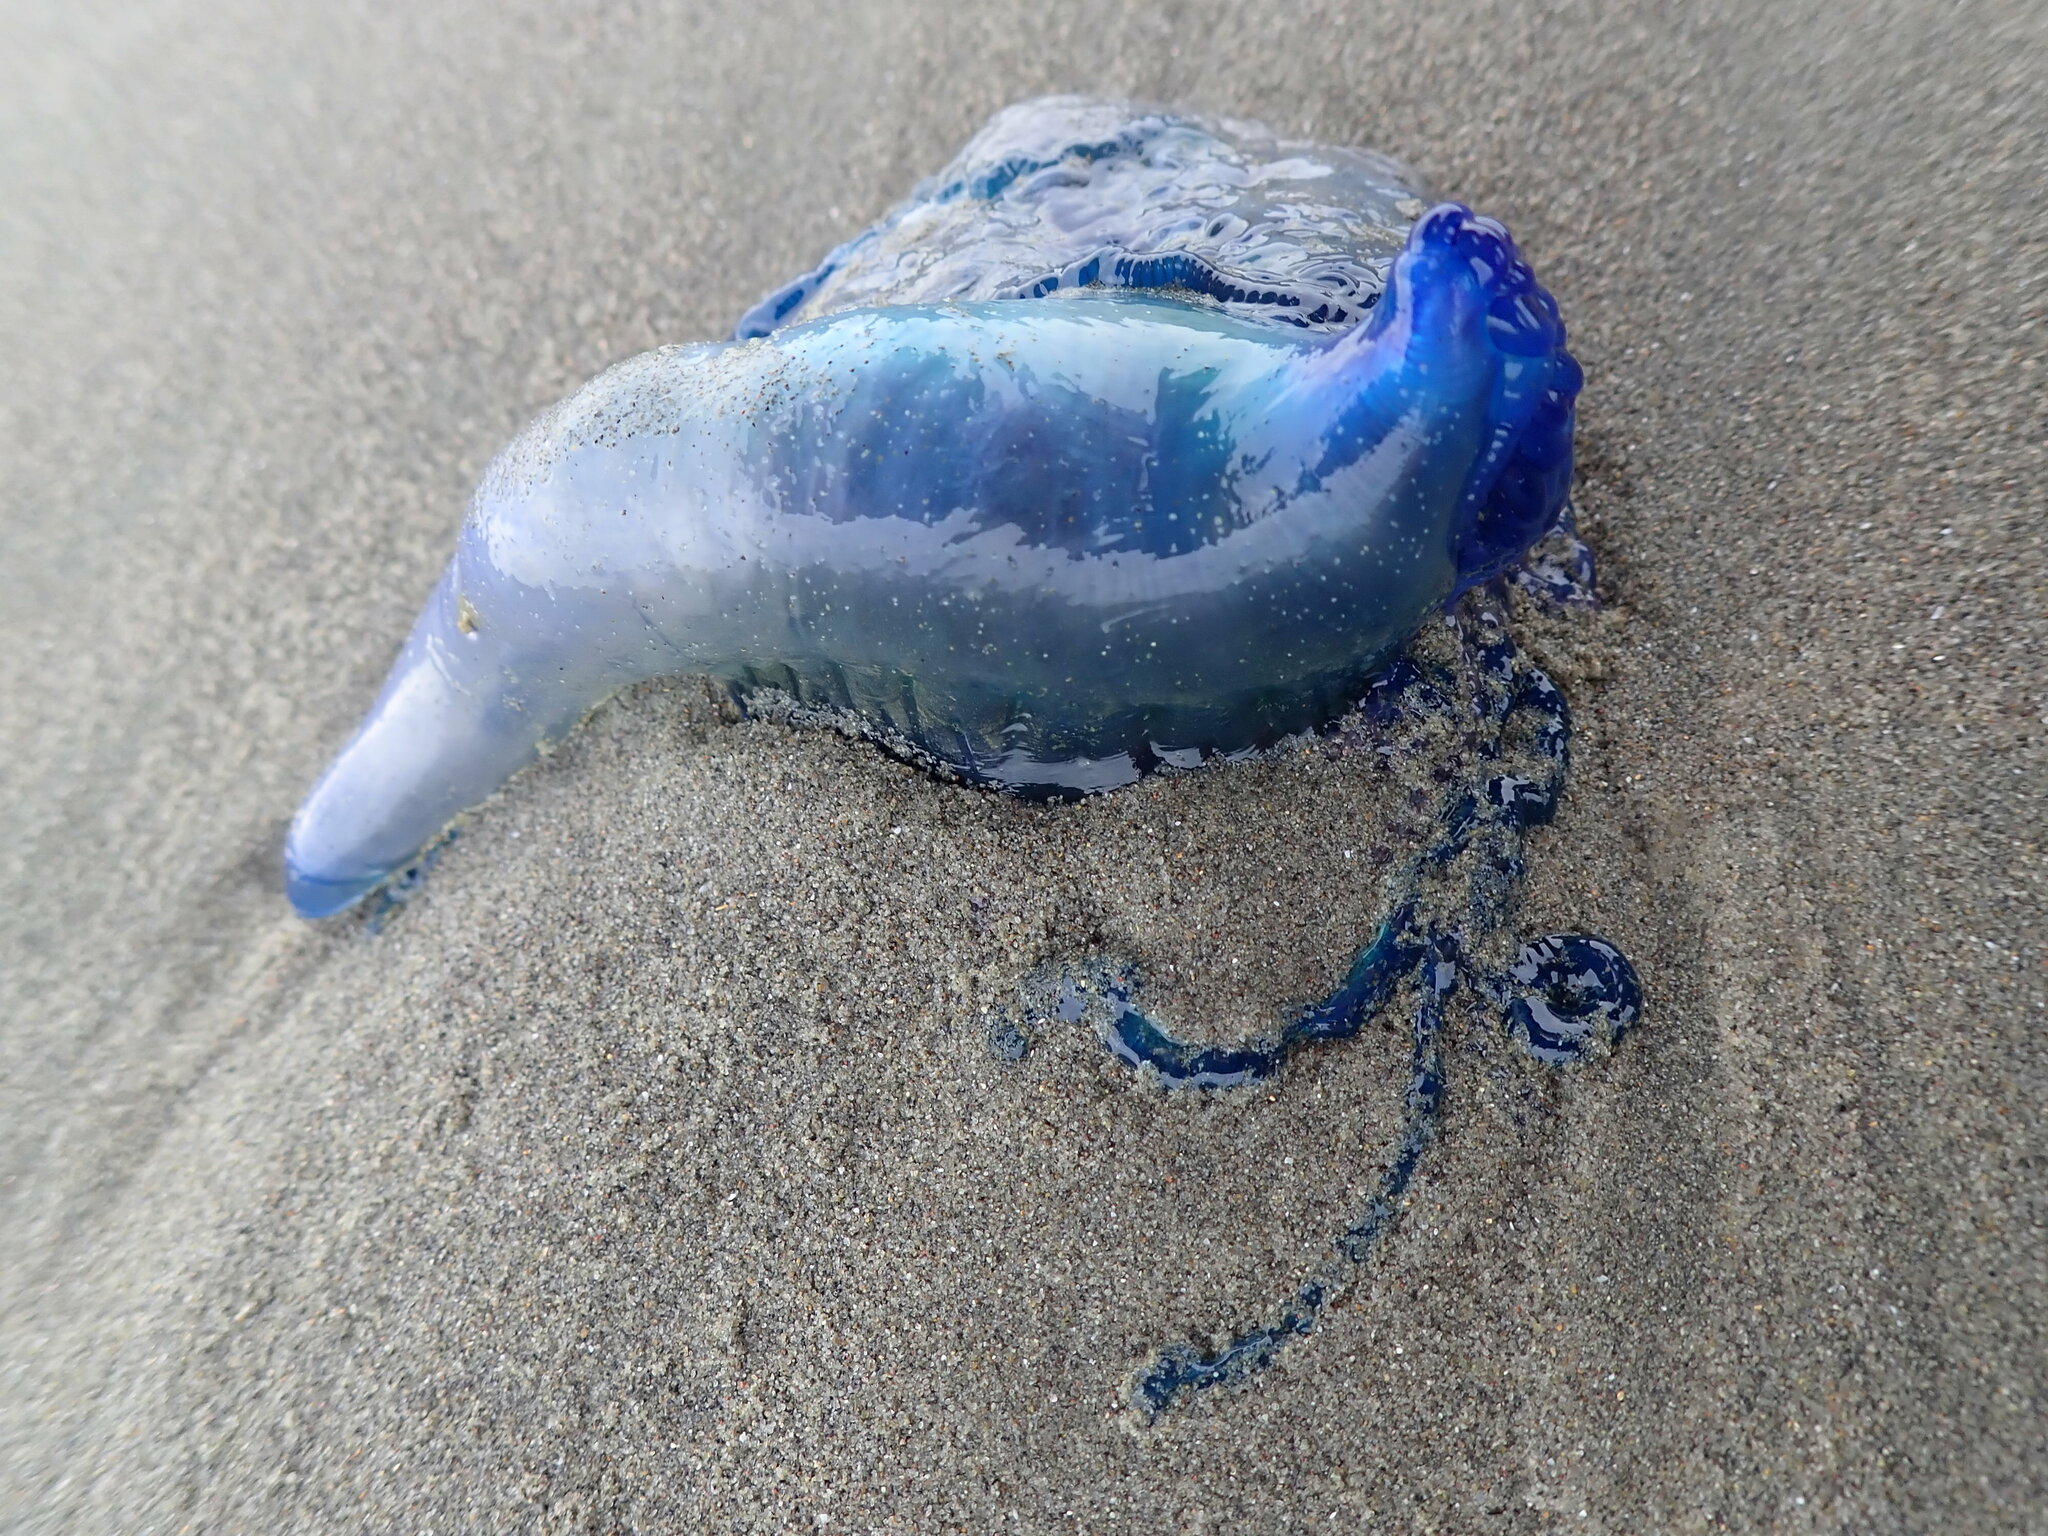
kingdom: Animalia
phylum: Cnidaria
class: Hydrozoa
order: Siphonophorae
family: Physaliidae
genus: Physalia
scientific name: Physalia physalis
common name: Portuguese man-of-war
